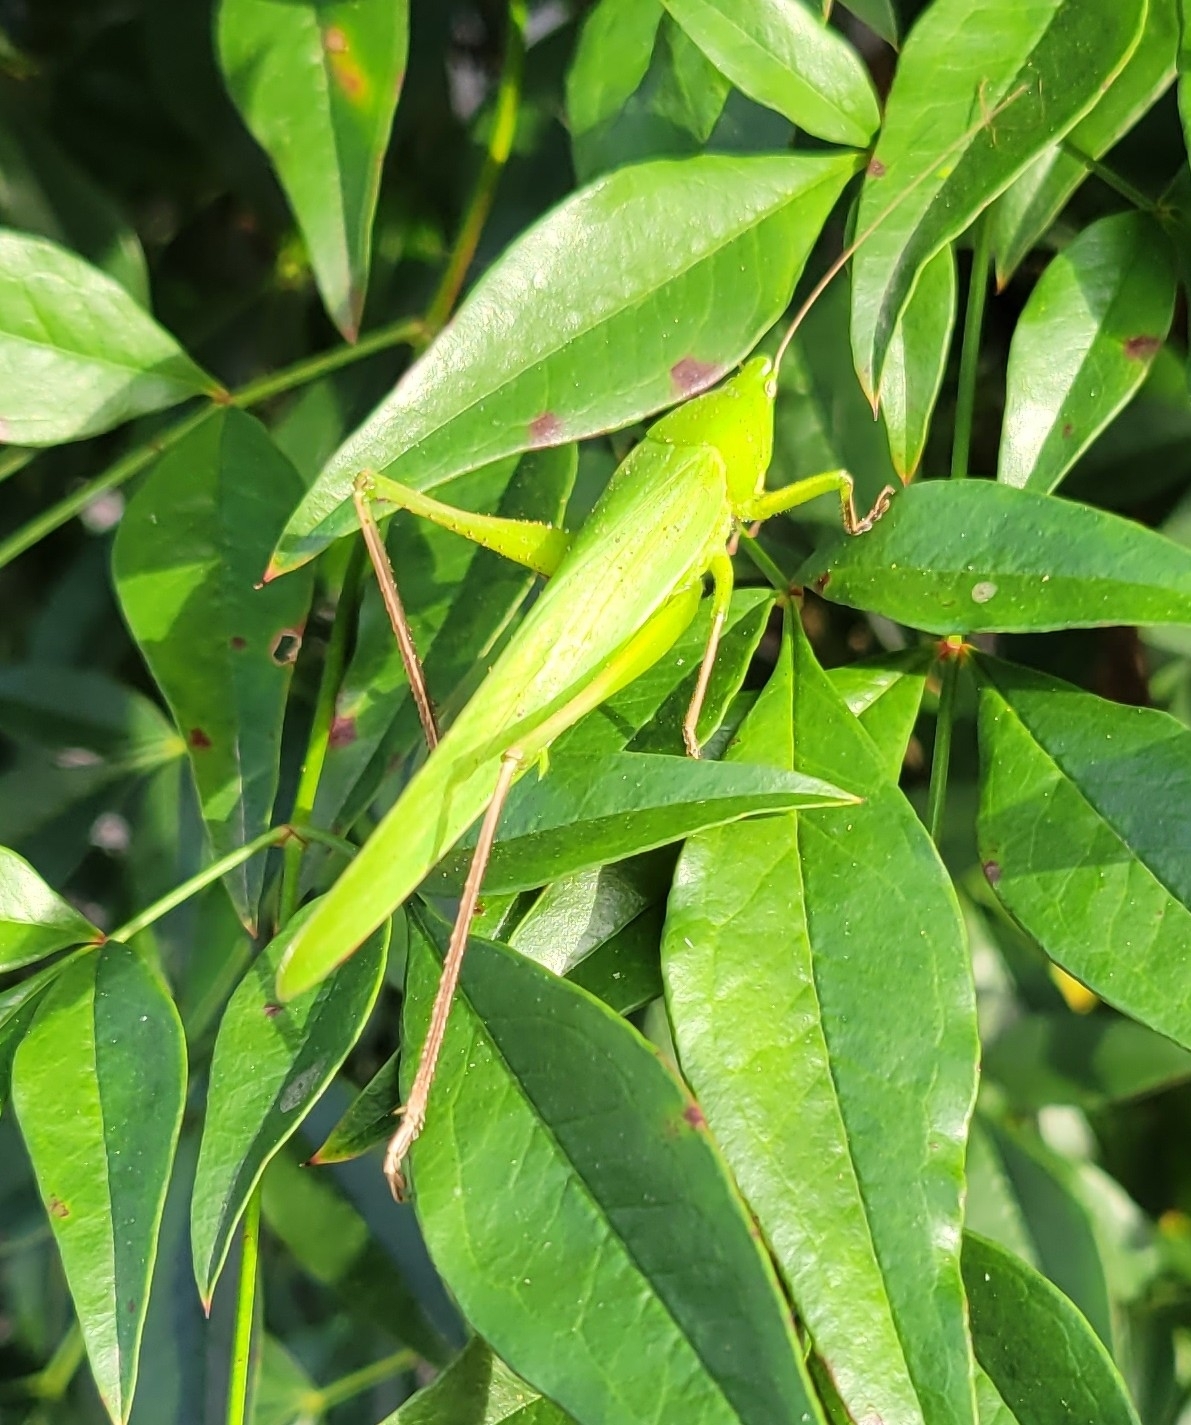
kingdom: Animalia
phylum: Arthropoda
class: Insecta
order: Orthoptera
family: Tettigoniidae
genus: Neoconocephalus
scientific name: Neoconocephalus triops
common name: Broad-tipped conehead
